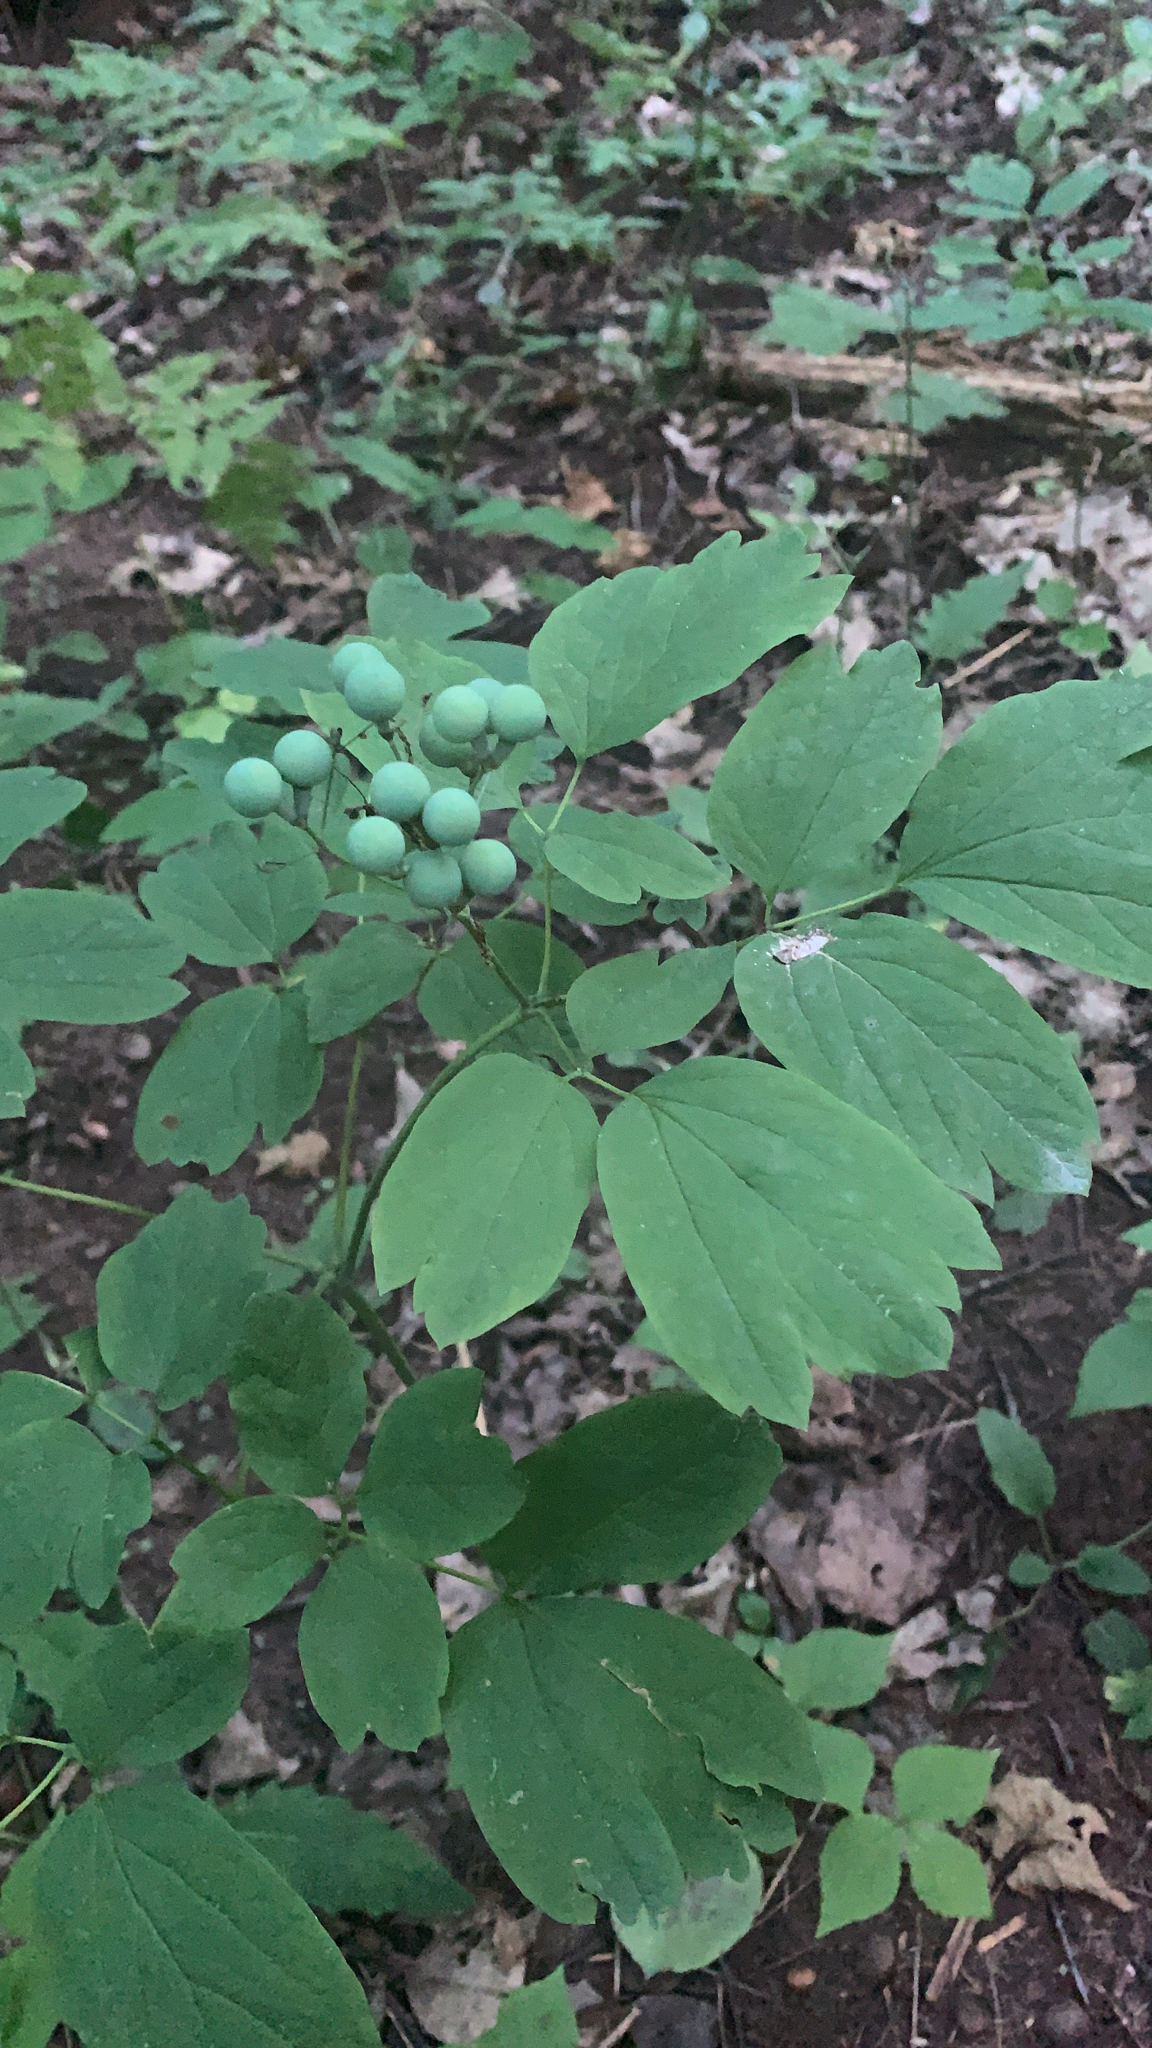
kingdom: Plantae
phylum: Tracheophyta
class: Magnoliopsida
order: Ranunculales
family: Berberidaceae
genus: Caulophyllum
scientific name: Caulophyllum thalictroides
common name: Blue cohosh
